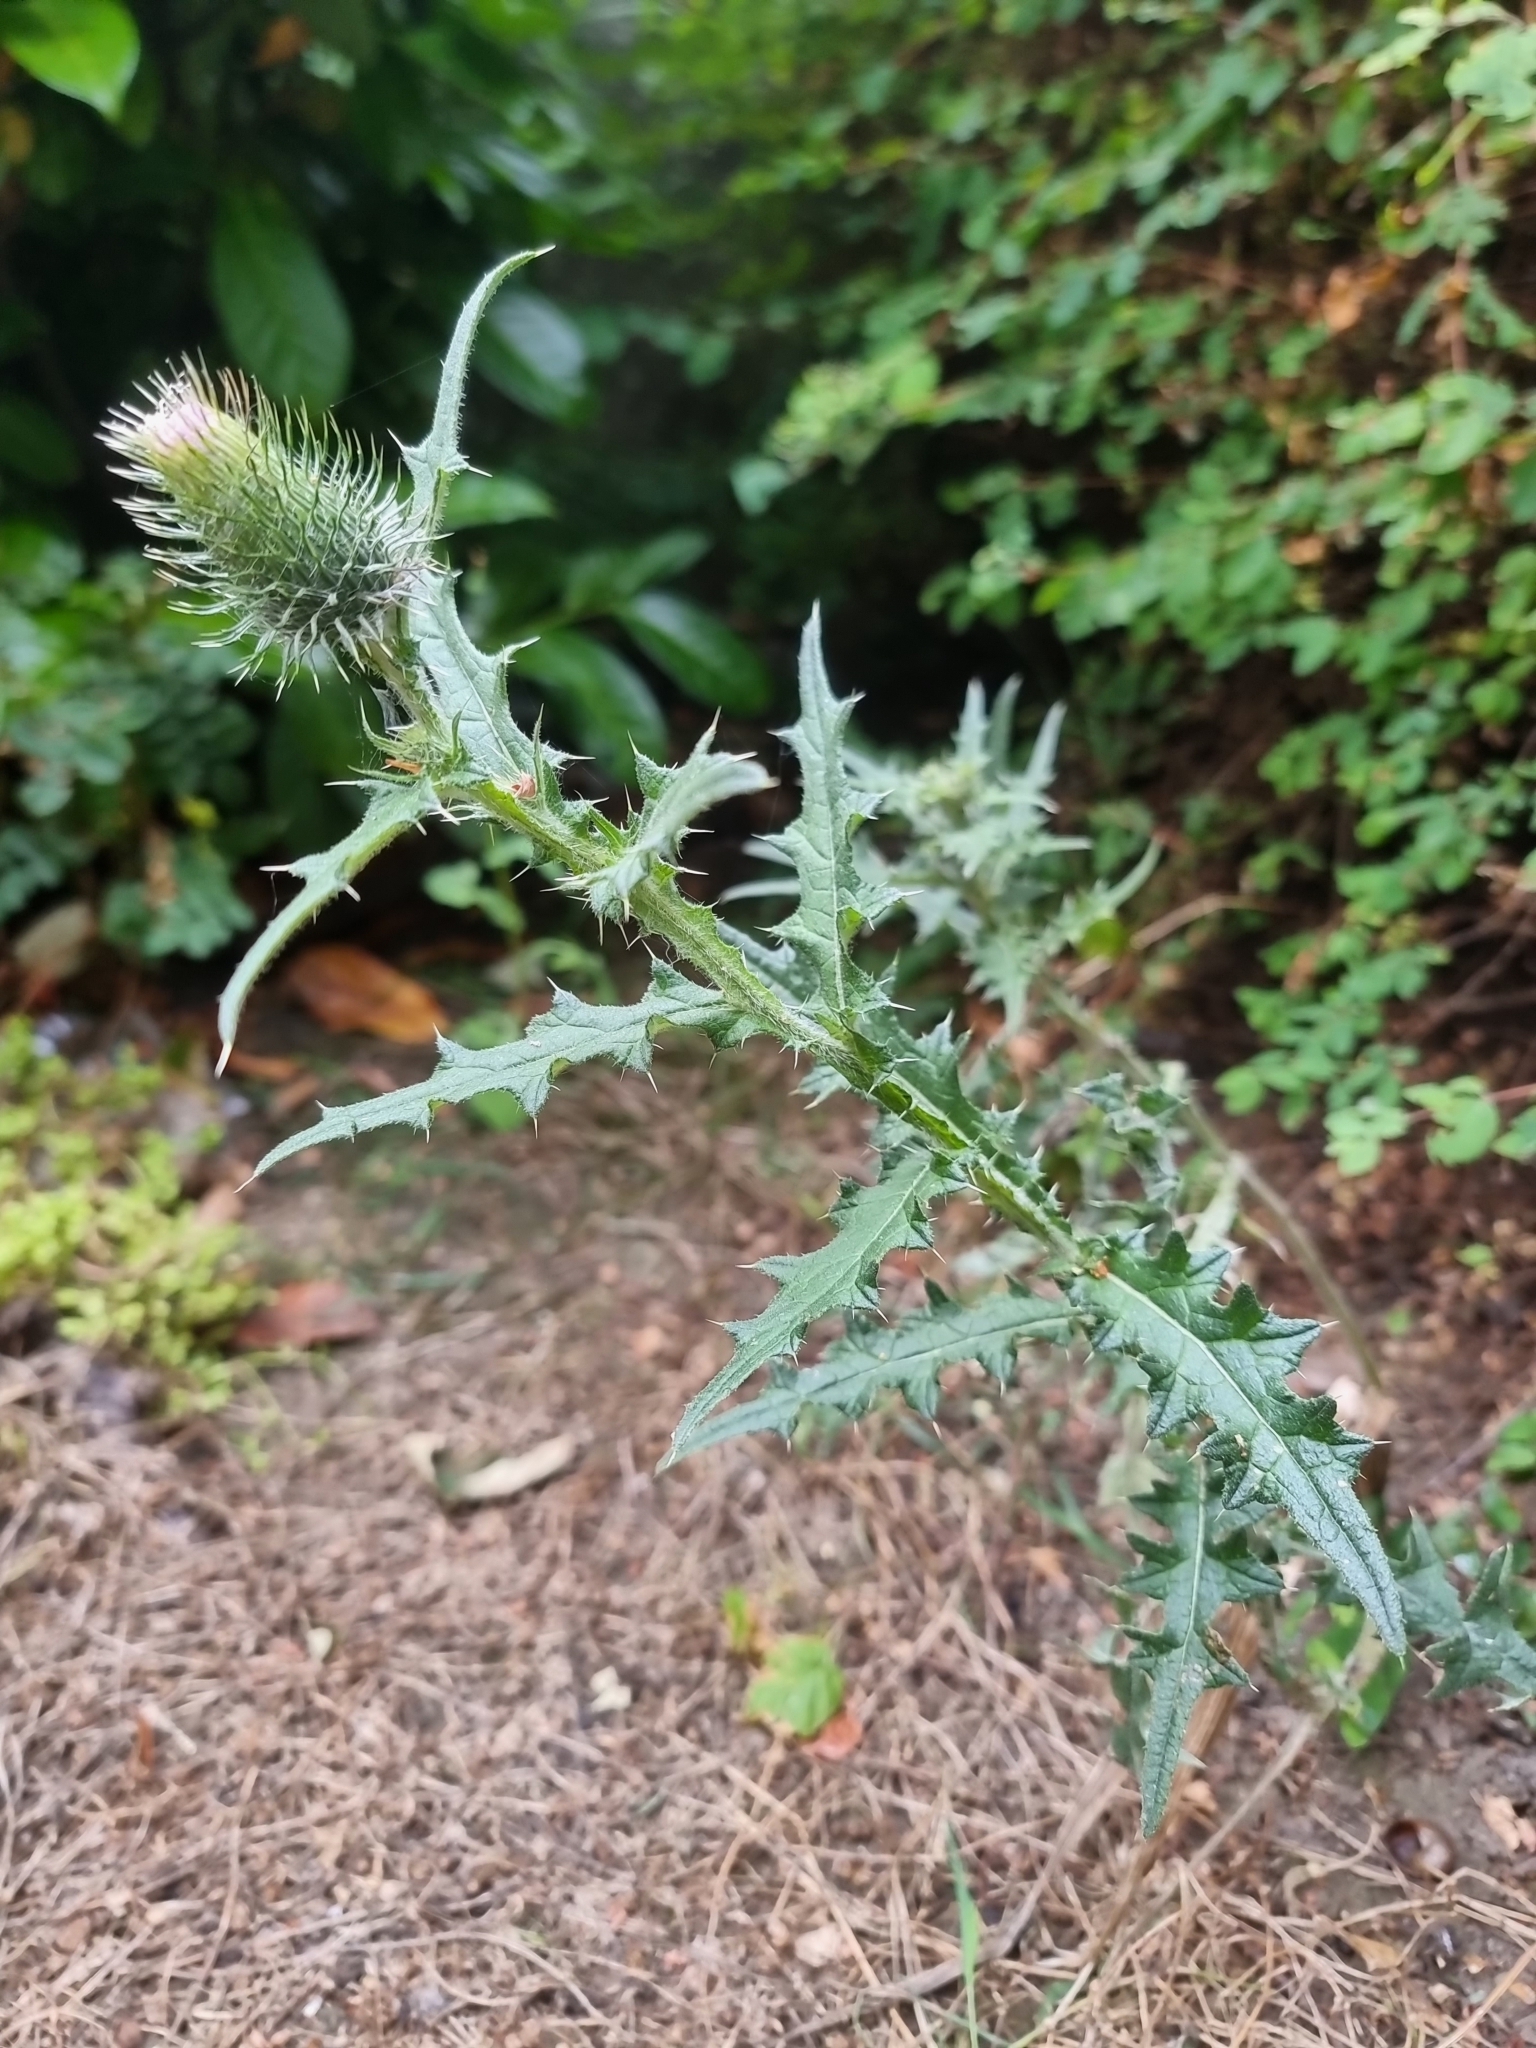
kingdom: Plantae
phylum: Tracheophyta
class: Magnoliopsida
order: Asterales
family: Asteraceae
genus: Cirsium
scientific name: Cirsium vulgare
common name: Bull thistle
